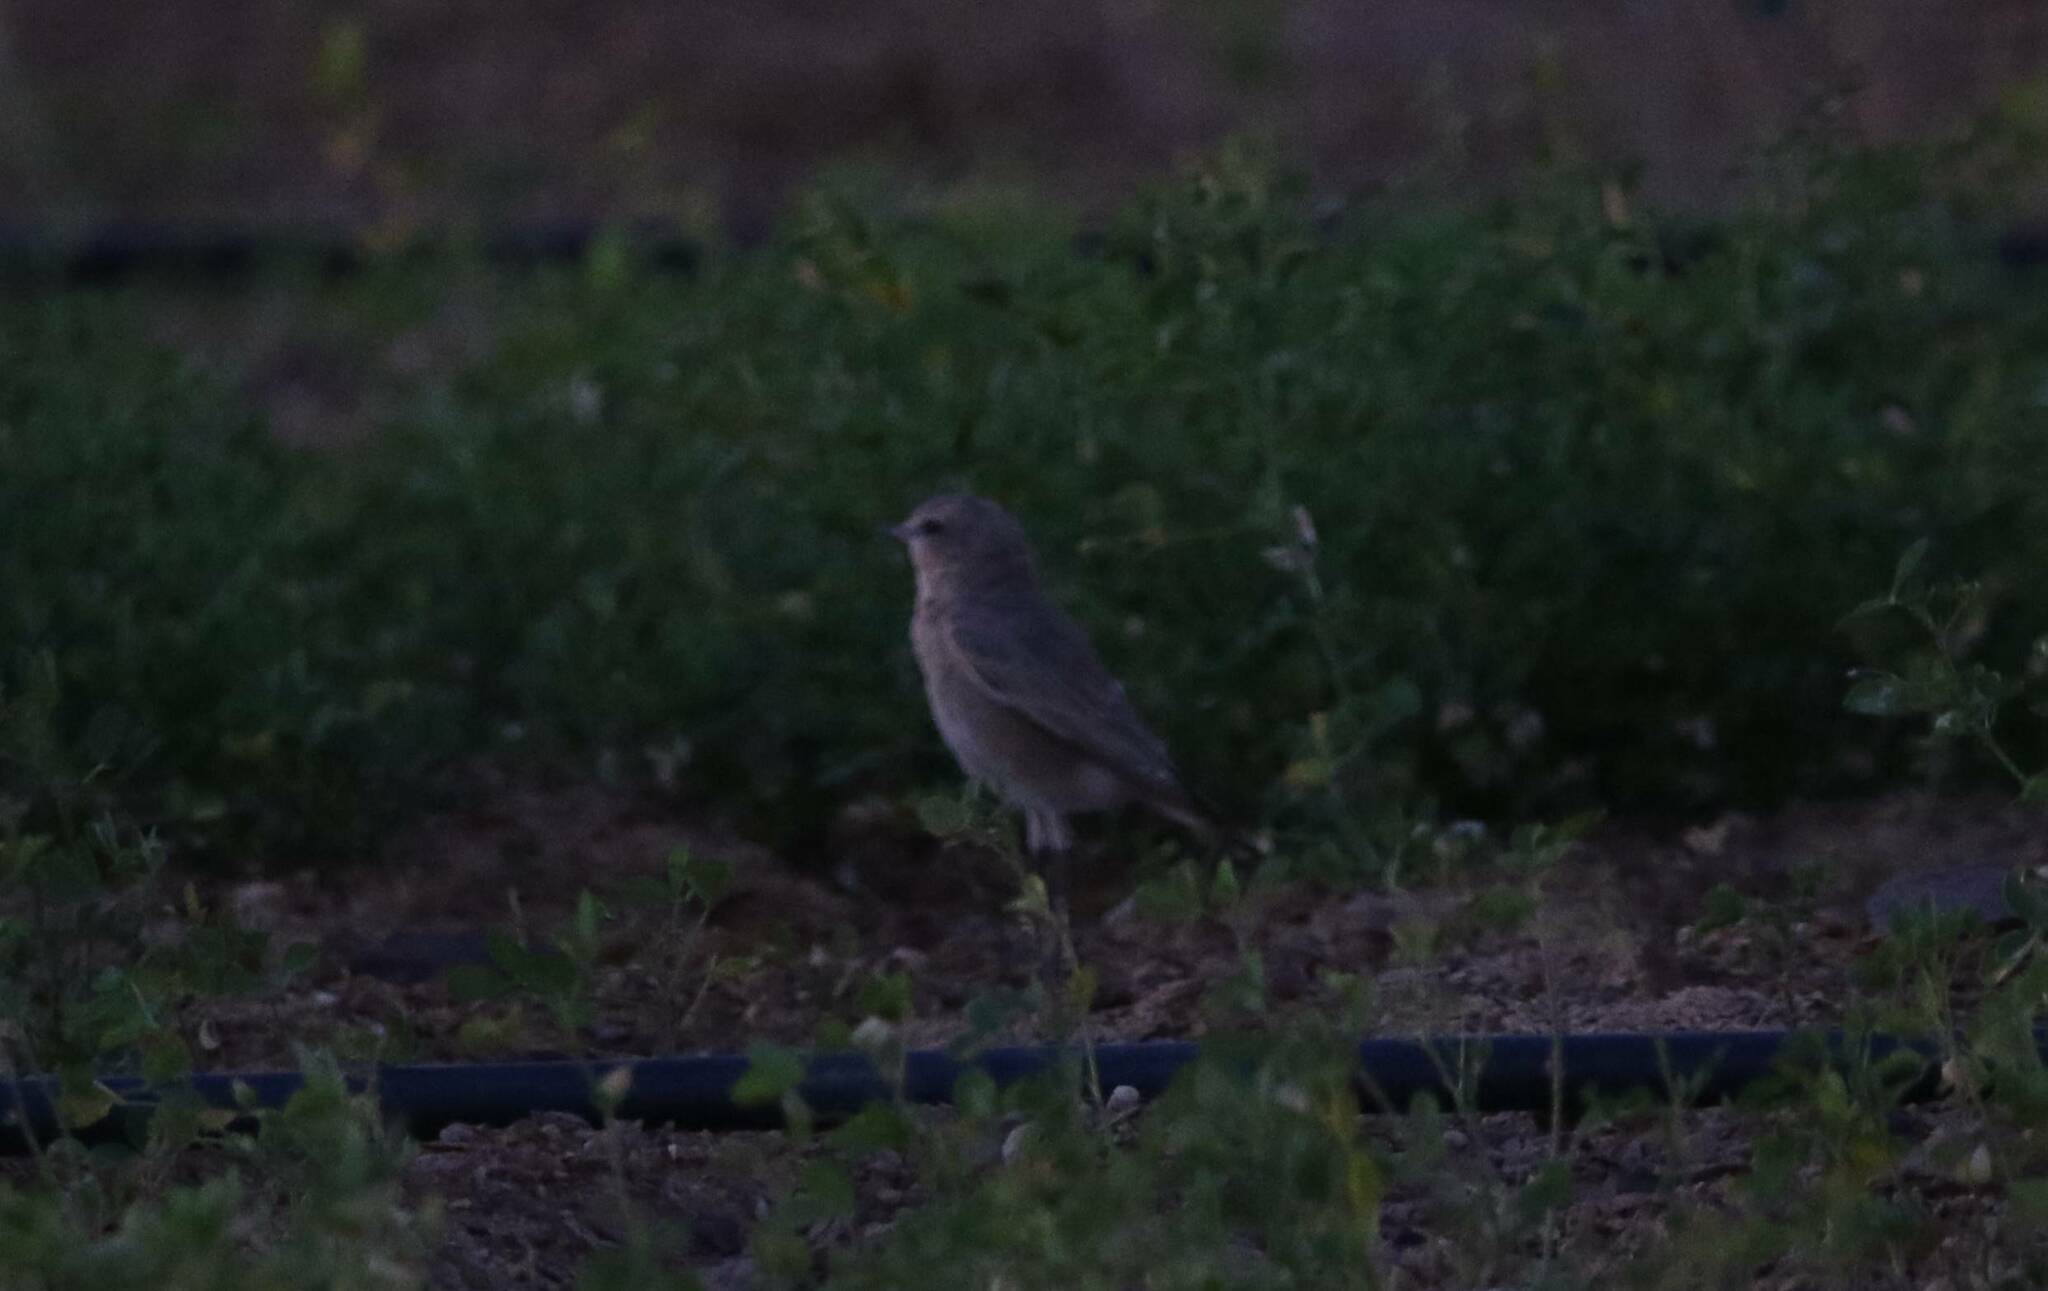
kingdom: Animalia
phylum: Chordata
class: Aves
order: Passeriformes
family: Muscicapidae
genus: Oenanthe
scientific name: Oenanthe isabellina
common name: Isabelline wheatear
